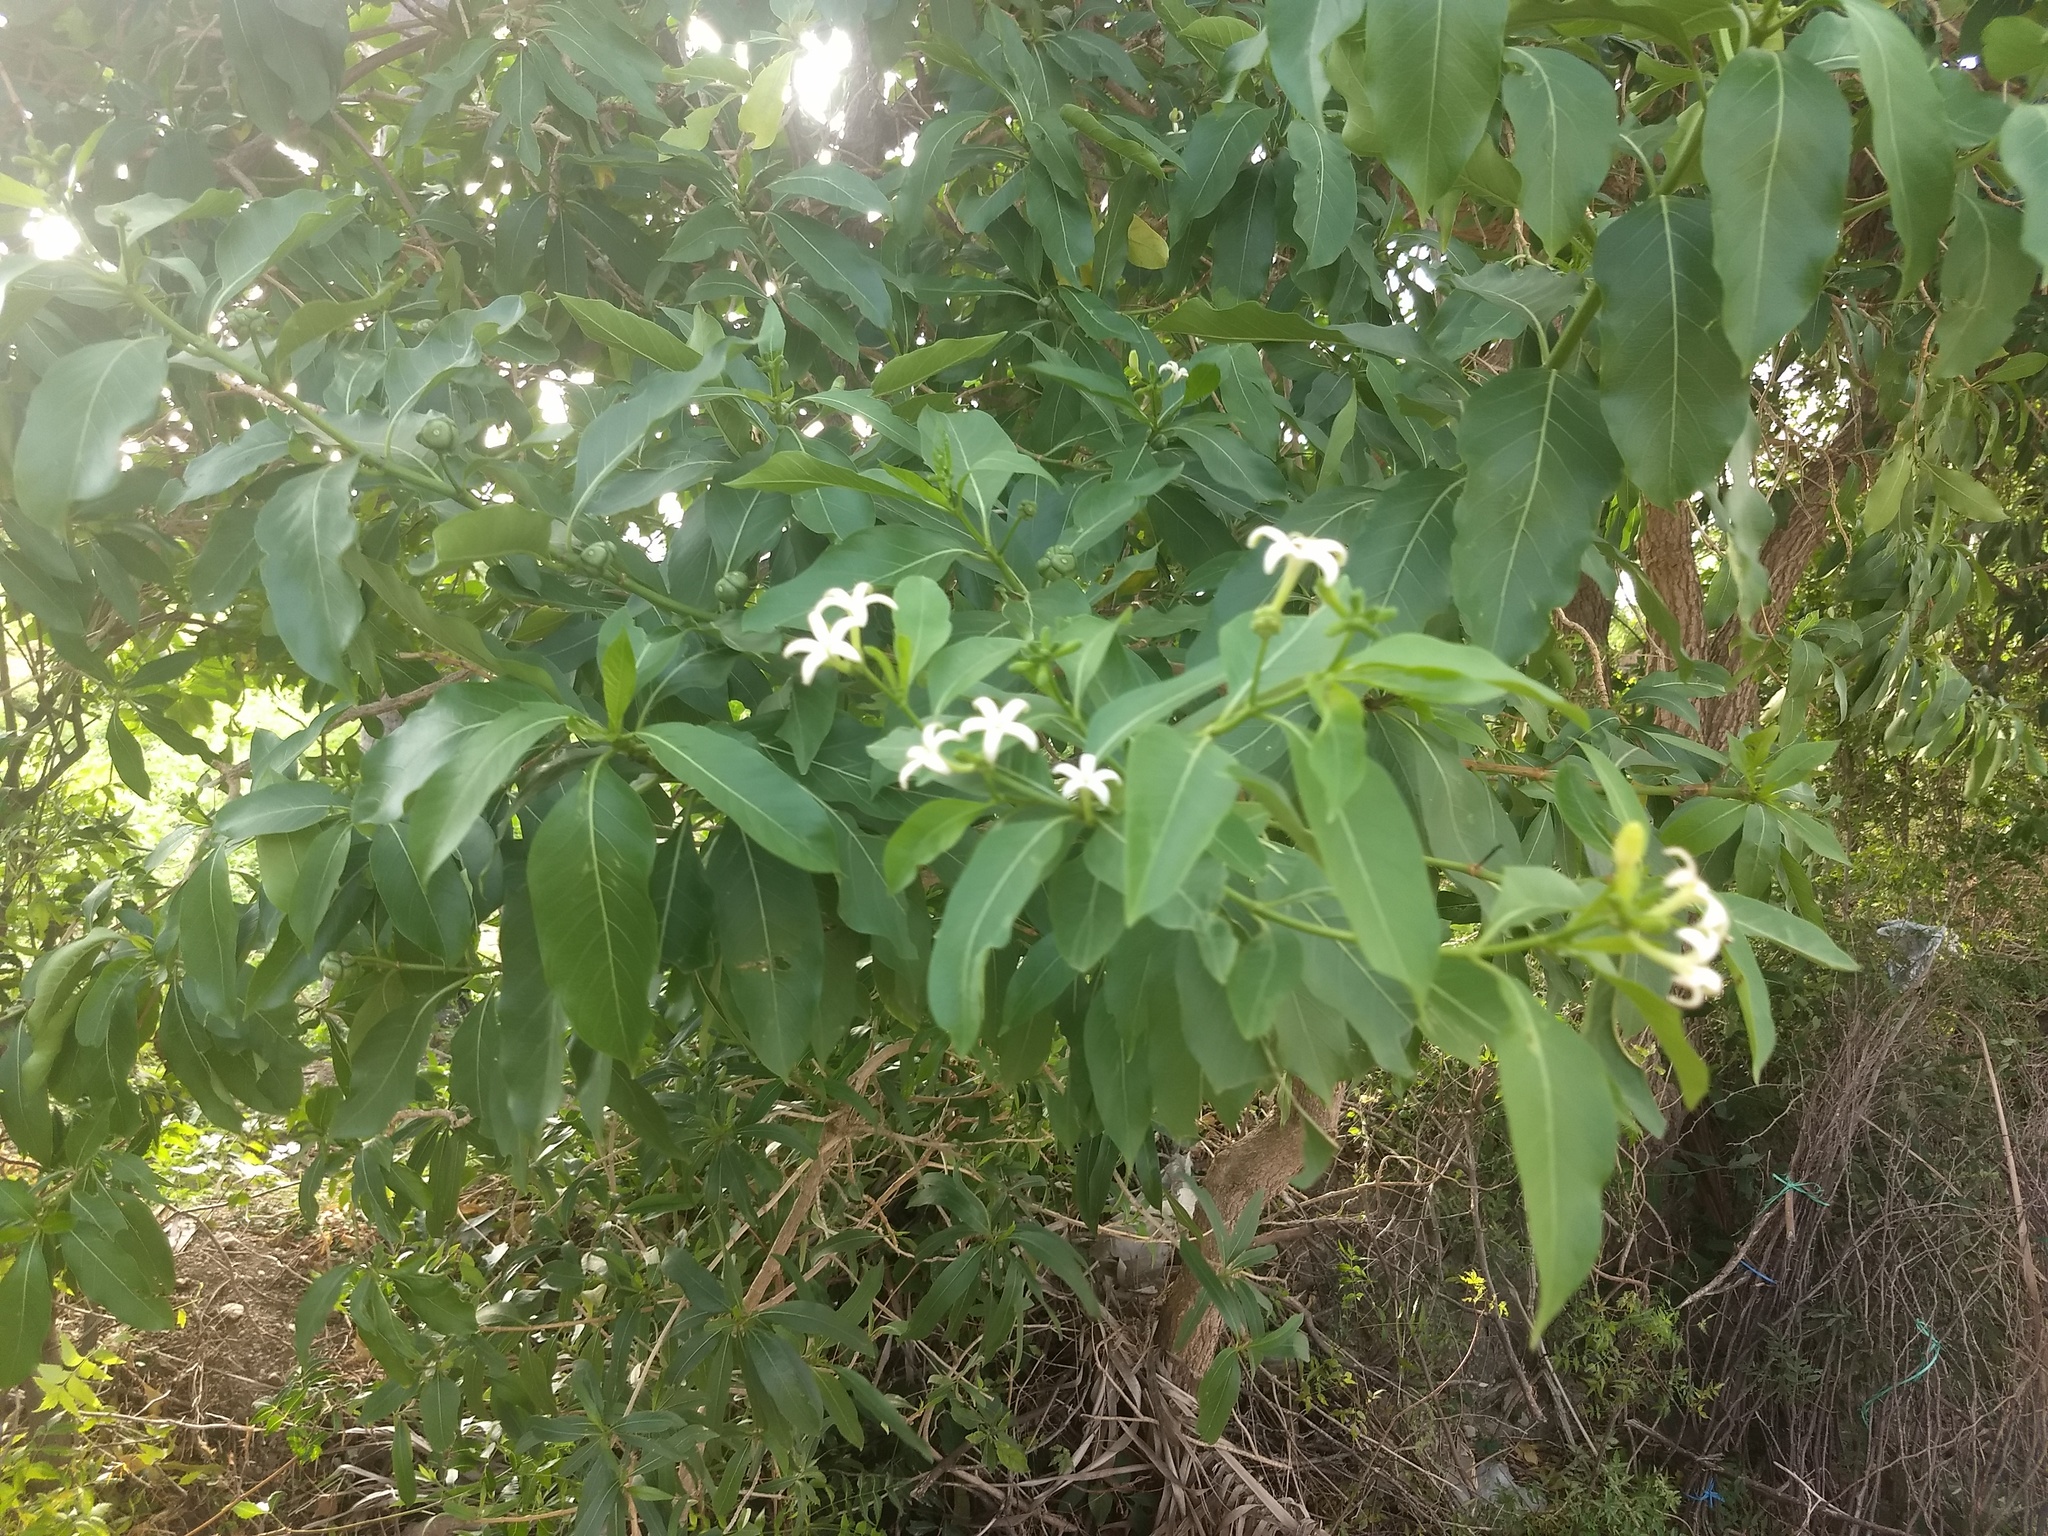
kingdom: Plantae
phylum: Tracheophyta
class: Magnoliopsida
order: Gentianales
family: Rubiaceae
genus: Morinda
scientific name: Morinda coreia
